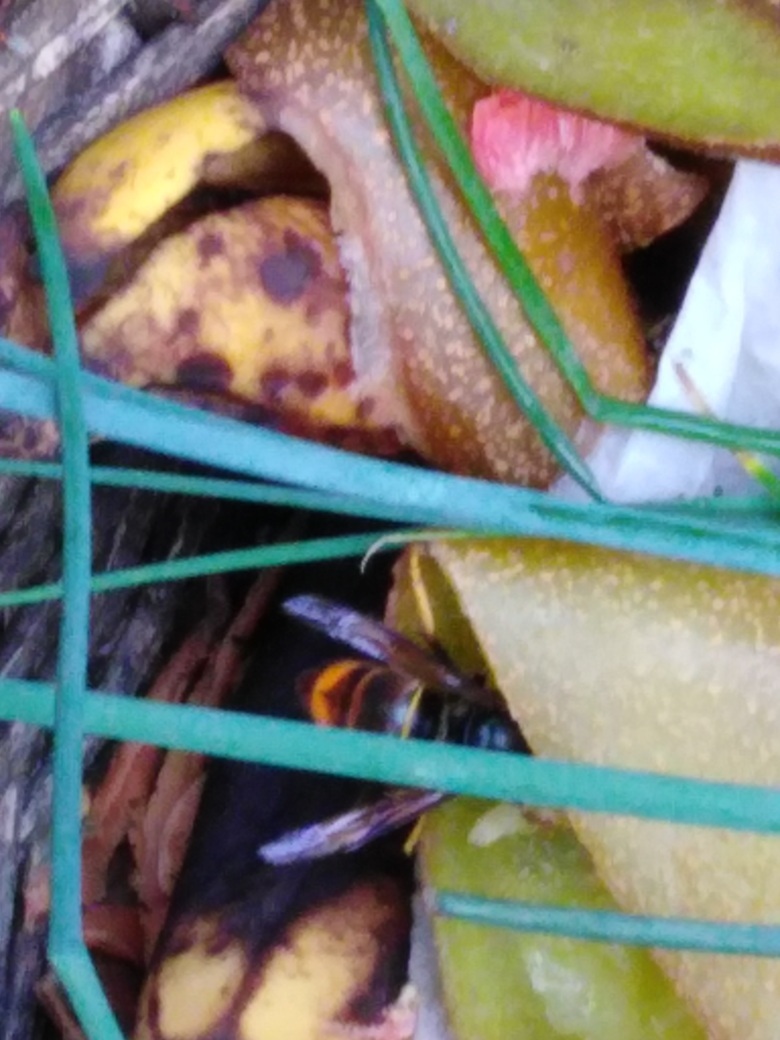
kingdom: Animalia
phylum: Arthropoda
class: Insecta
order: Hymenoptera
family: Vespidae
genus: Vespa
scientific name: Vespa velutina
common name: Asian hornet
